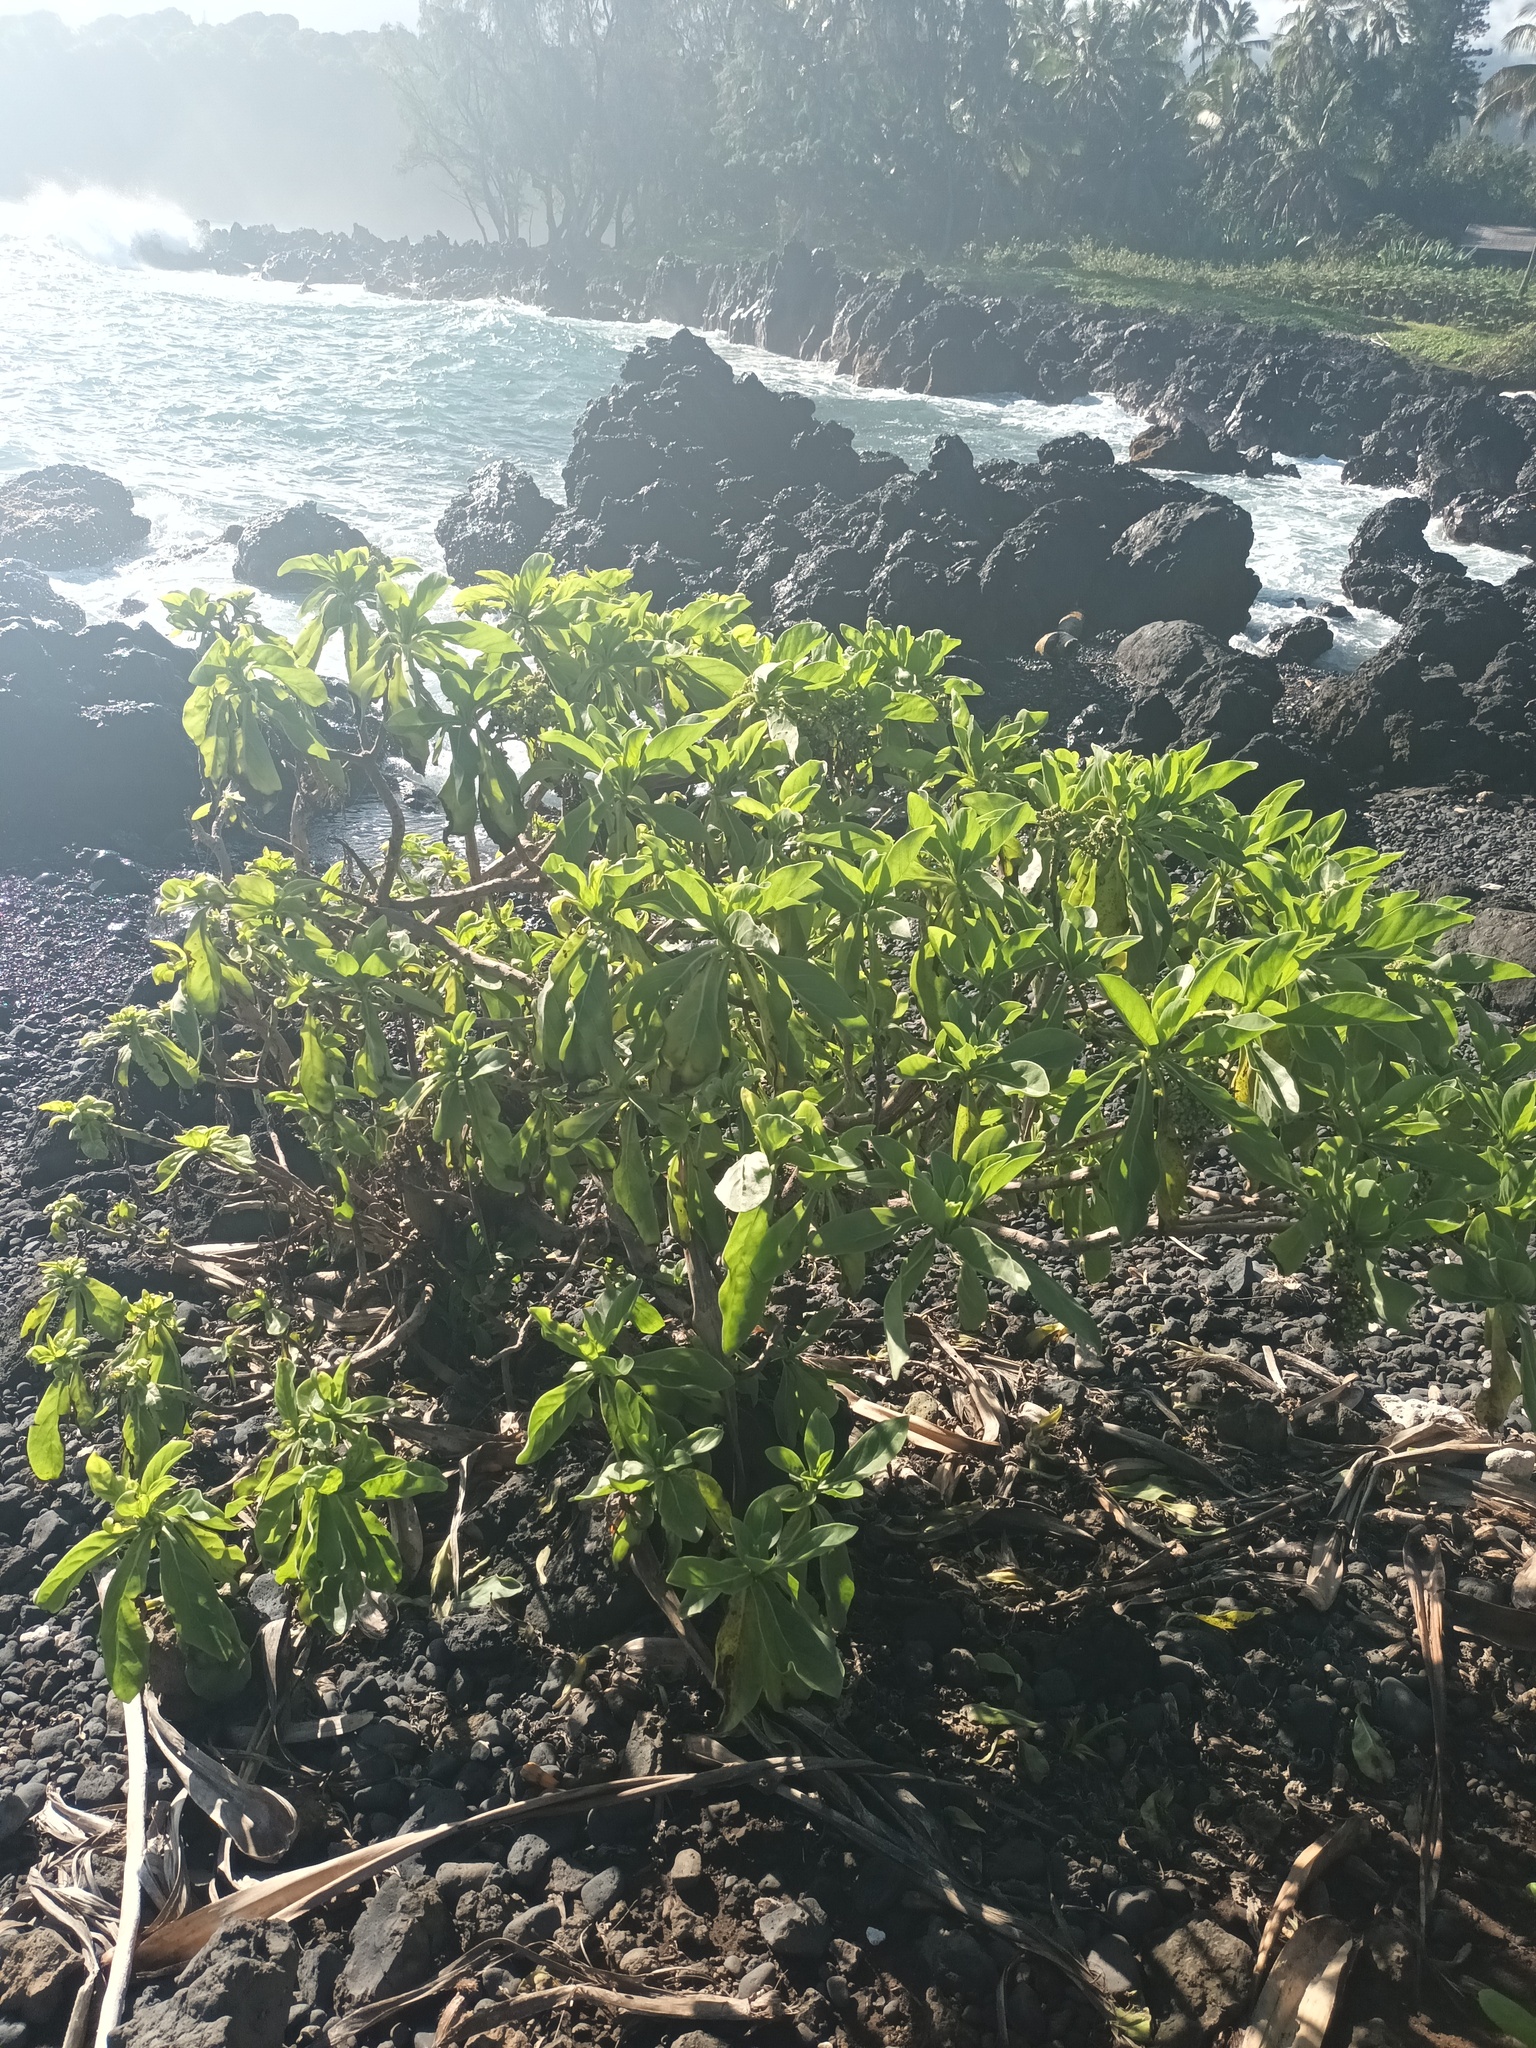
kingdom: Plantae
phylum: Tracheophyta
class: Magnoliopsida
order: Boraginales
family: Heliotropiaceae
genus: Heliotropium
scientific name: Heliotropium velutinum
